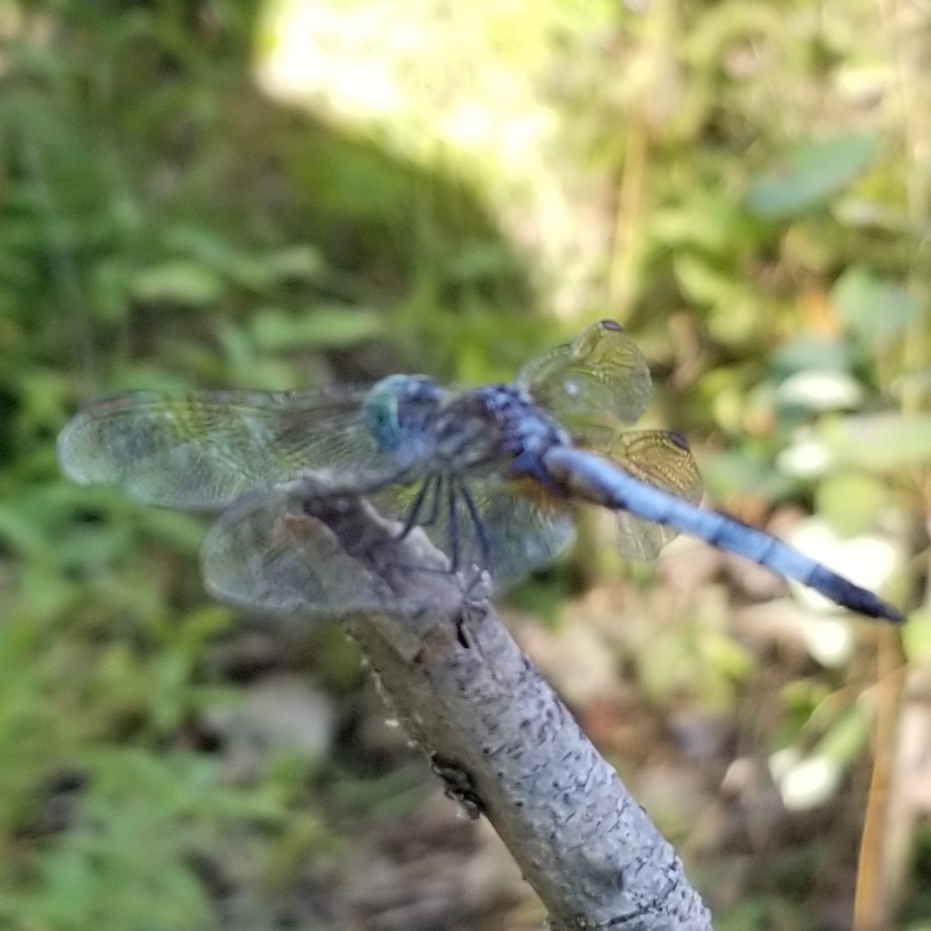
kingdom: Animalia
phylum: Arthropoda
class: Insecta
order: Odonata
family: Libellulidae
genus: Pachydiplax
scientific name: Pachydiplax longipennis
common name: Blue dasher
